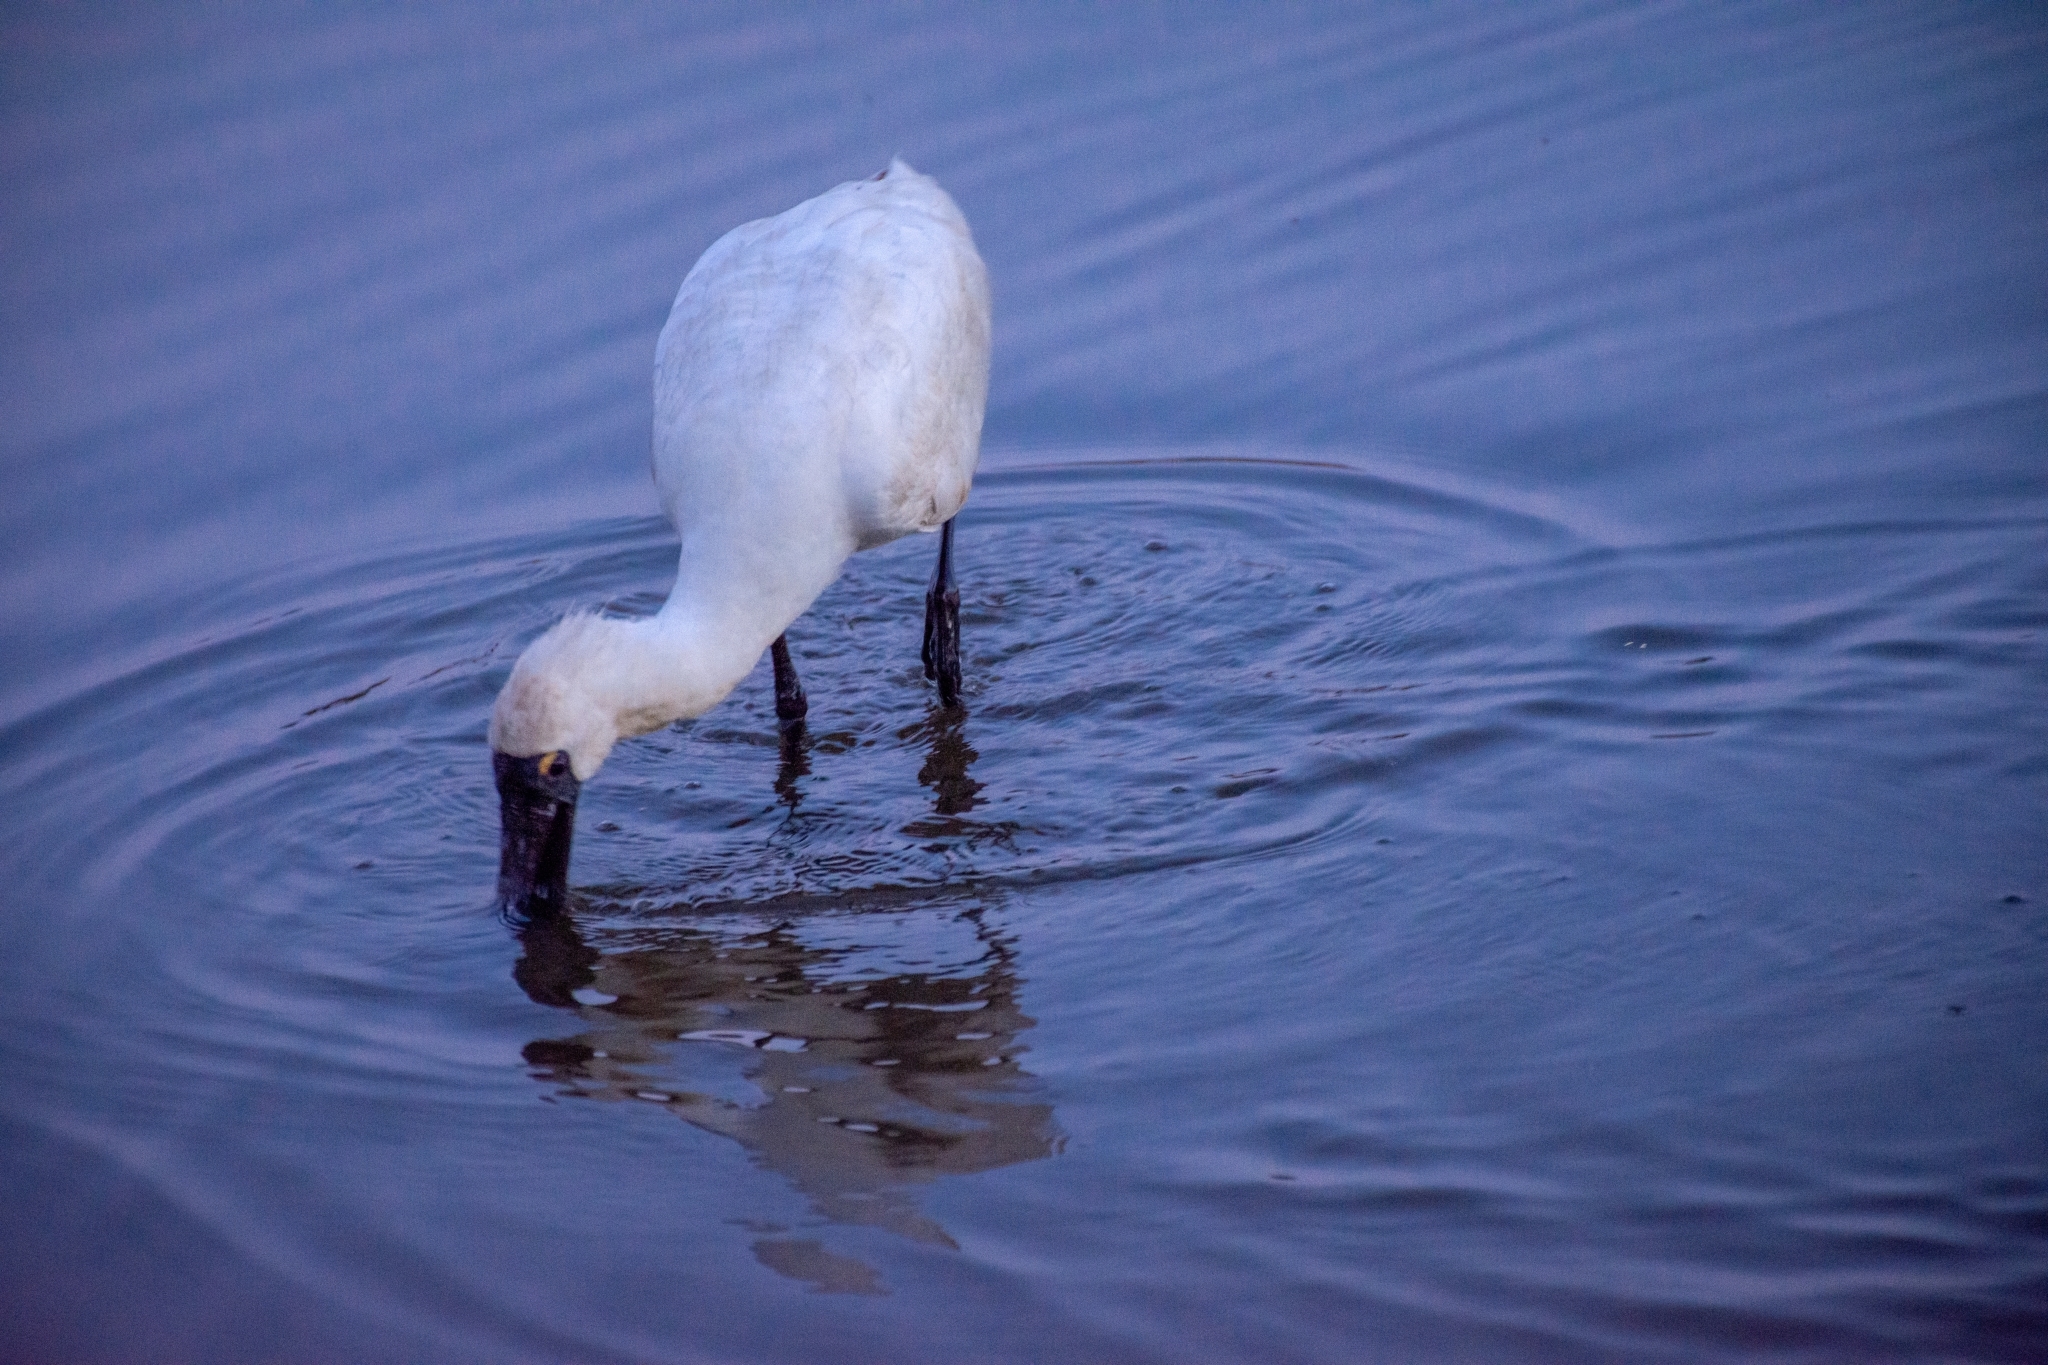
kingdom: Animalia
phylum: Chordata
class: Aves
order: Pelecaniformes
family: Threskiornithidae
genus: Platalea
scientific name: Platalea regia
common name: Royal spoonbill
